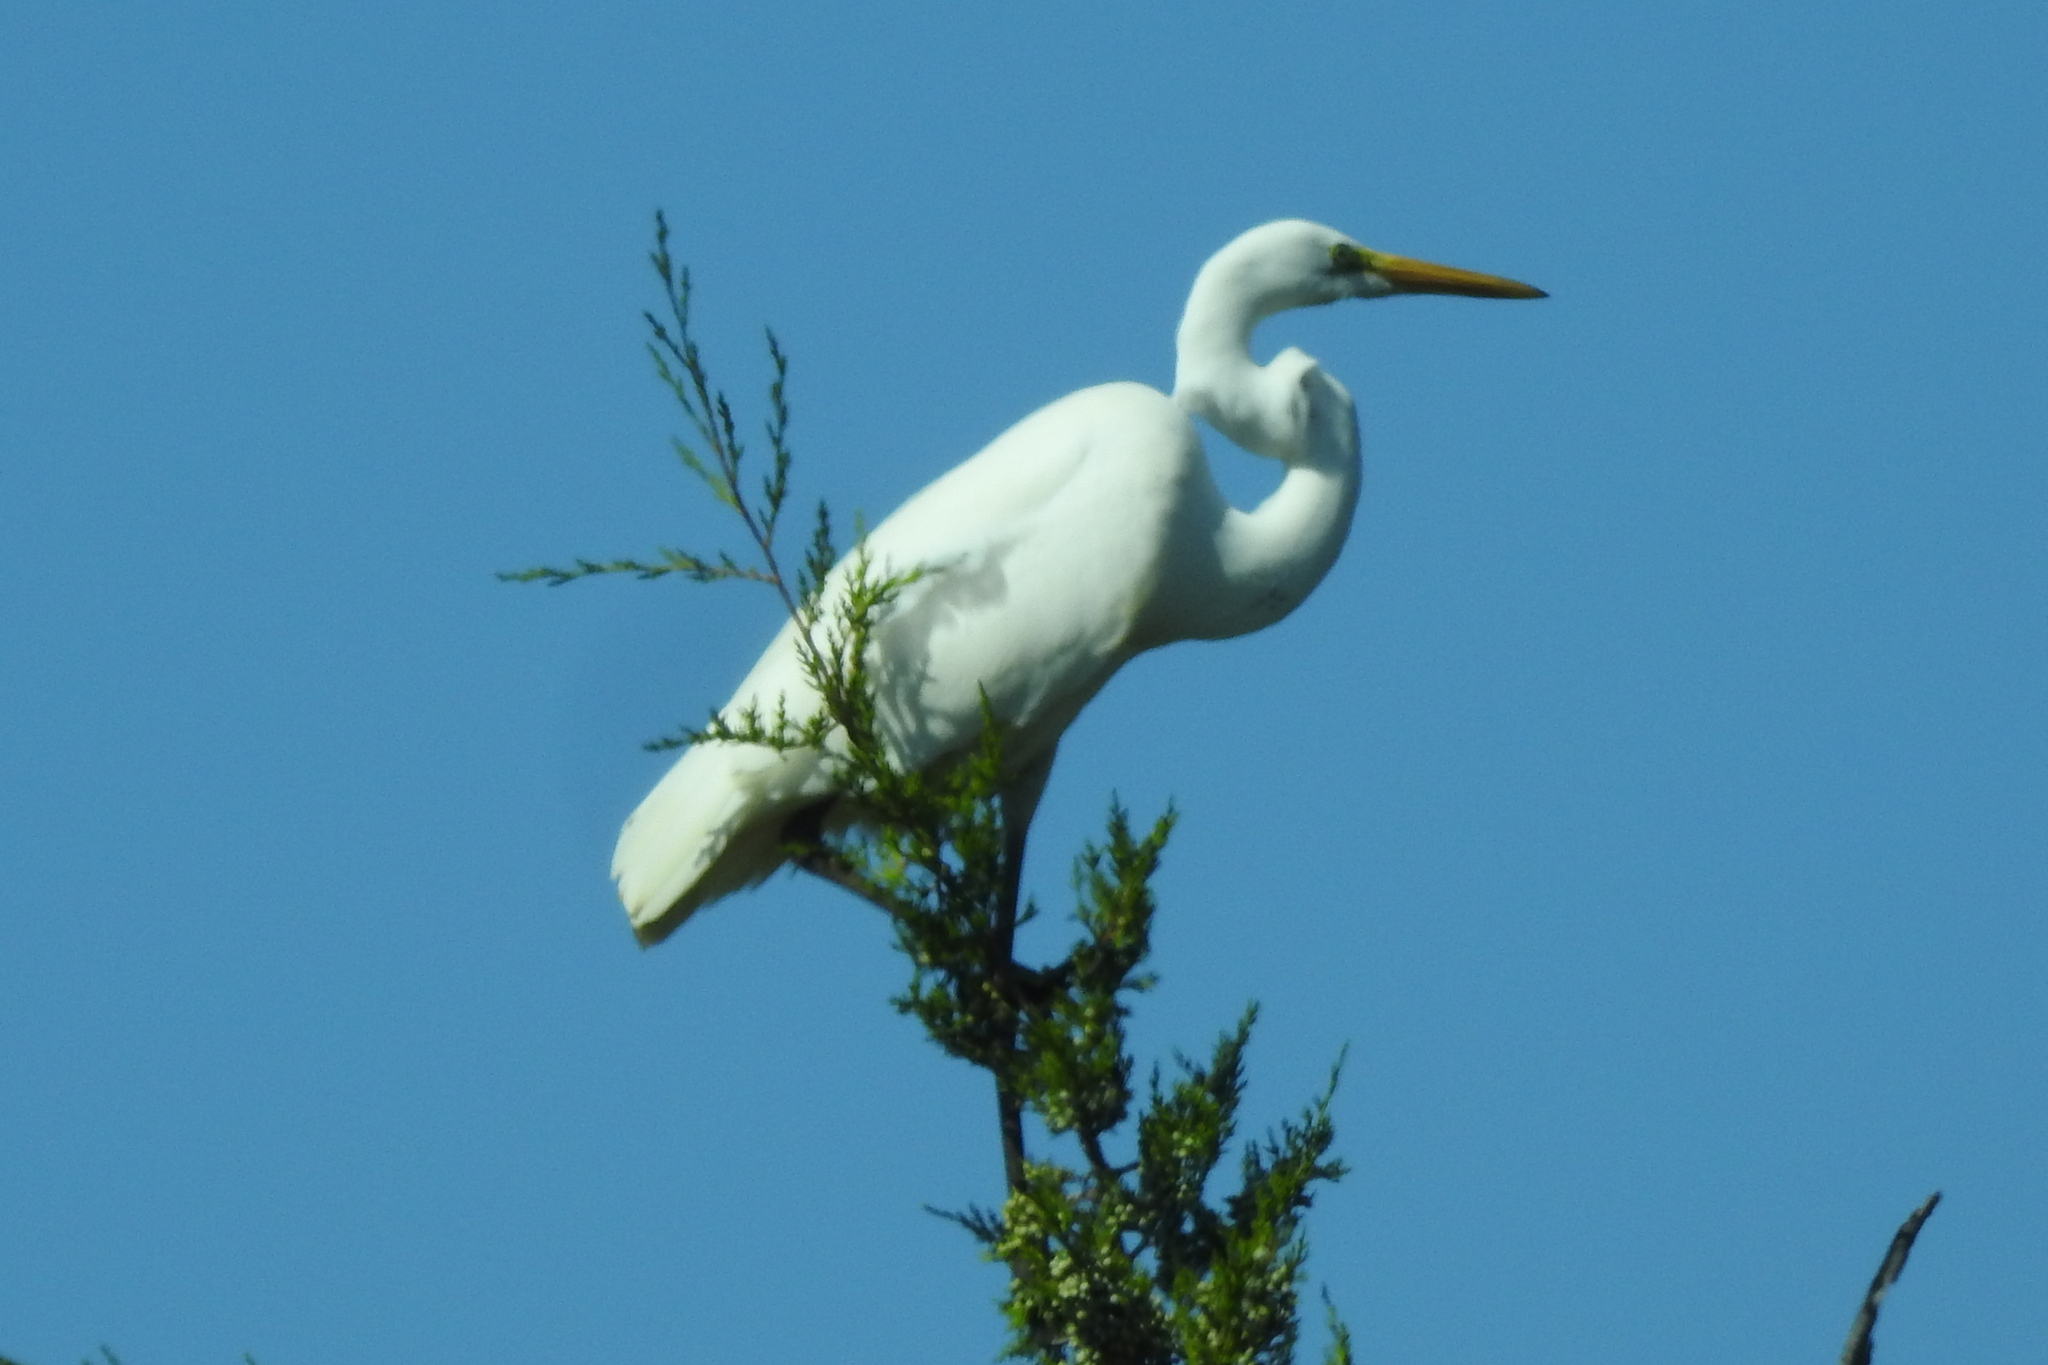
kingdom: Animalia
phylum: Chordata
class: Aves
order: Pelecaniformes
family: Ardeidae
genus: Ardea
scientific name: Ardea alba
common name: Great egret
